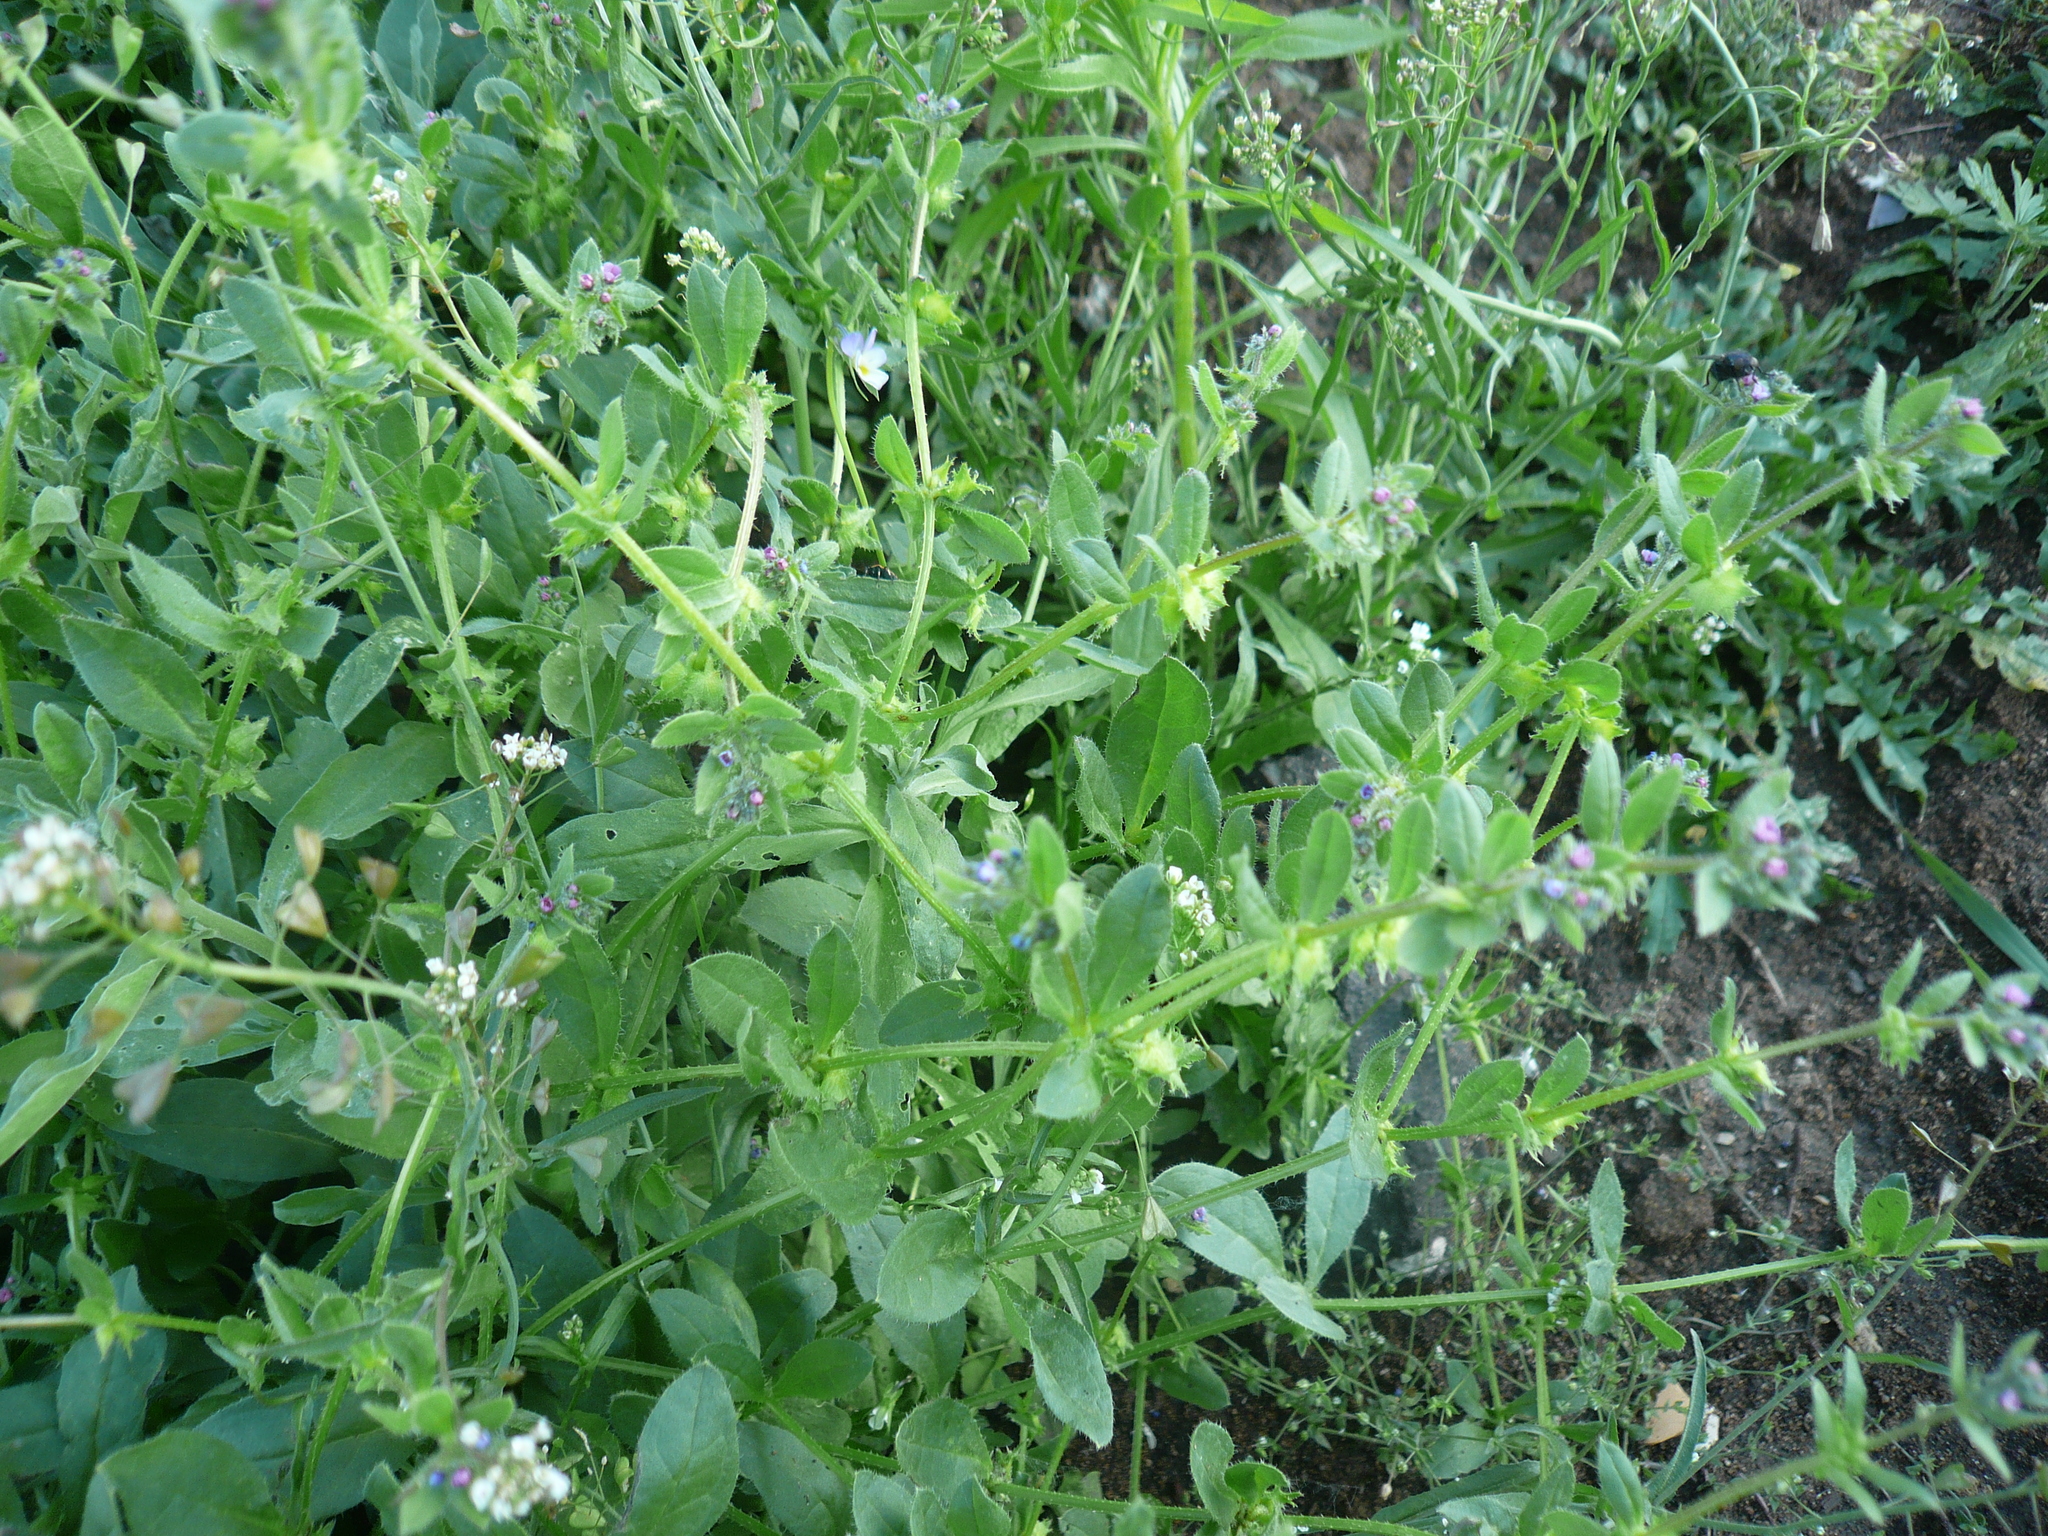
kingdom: Plantae
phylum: Tracheophyta
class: Magnoliopsida
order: Boraginales
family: Boraginaceae
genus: Asperugo
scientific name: Asperugo procumbens
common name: Madwort
